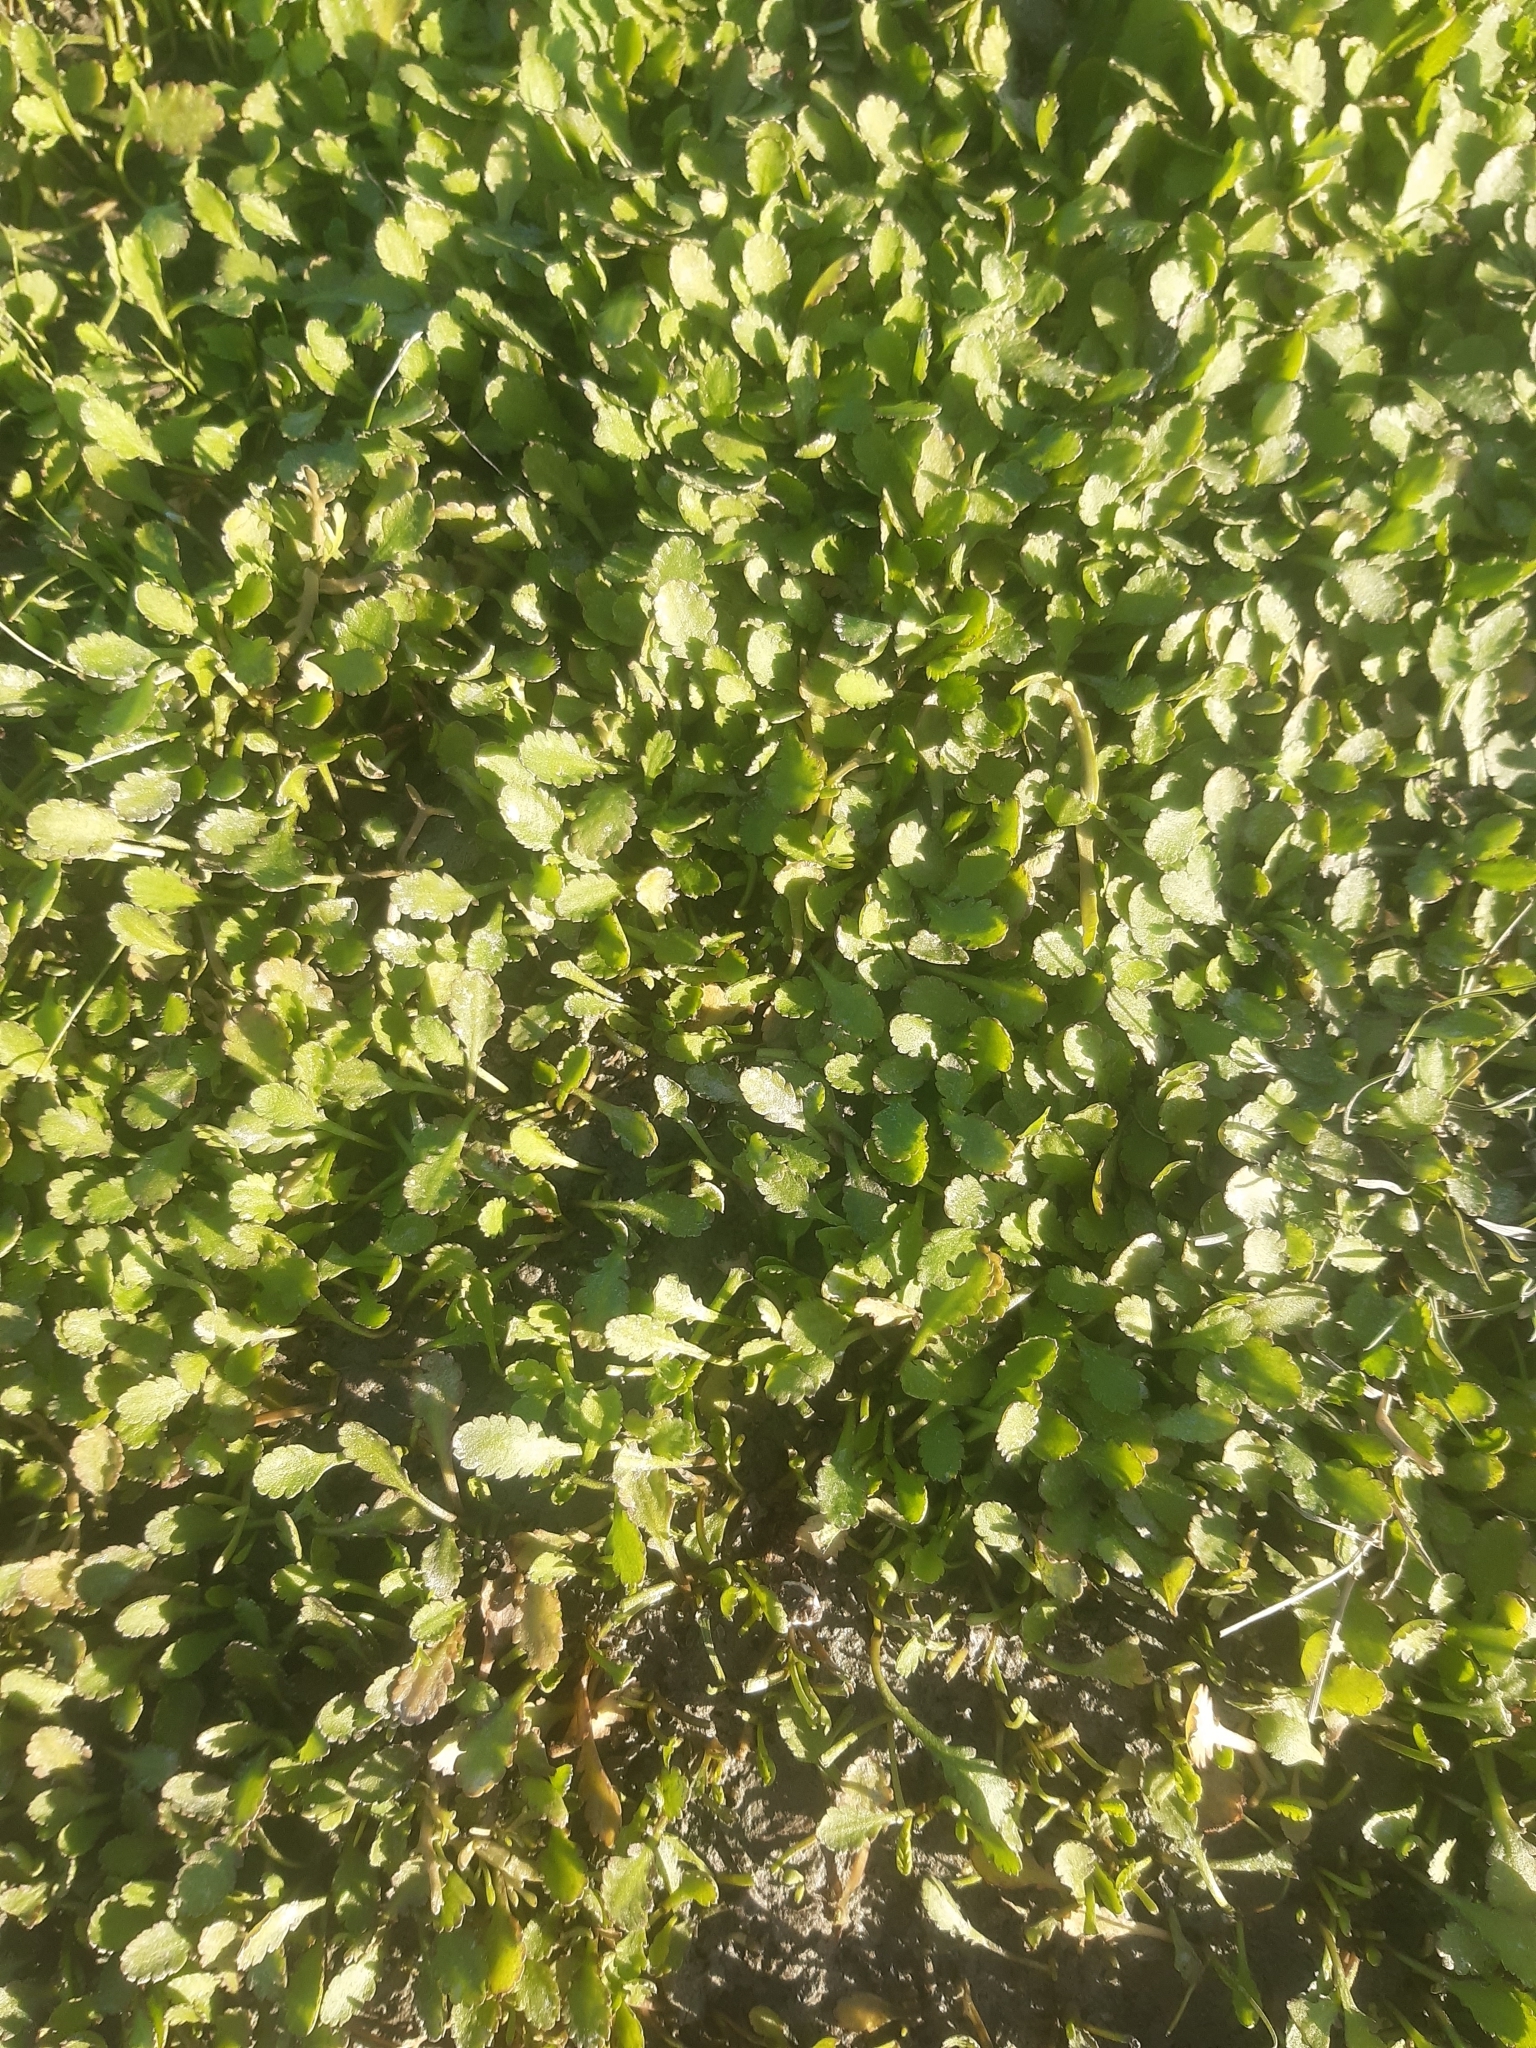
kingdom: Plantae
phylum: Tracheophyta
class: Magnoliopsida
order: Asterales
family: Asteraceae
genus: Leptinella
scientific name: Leptinella dioica
